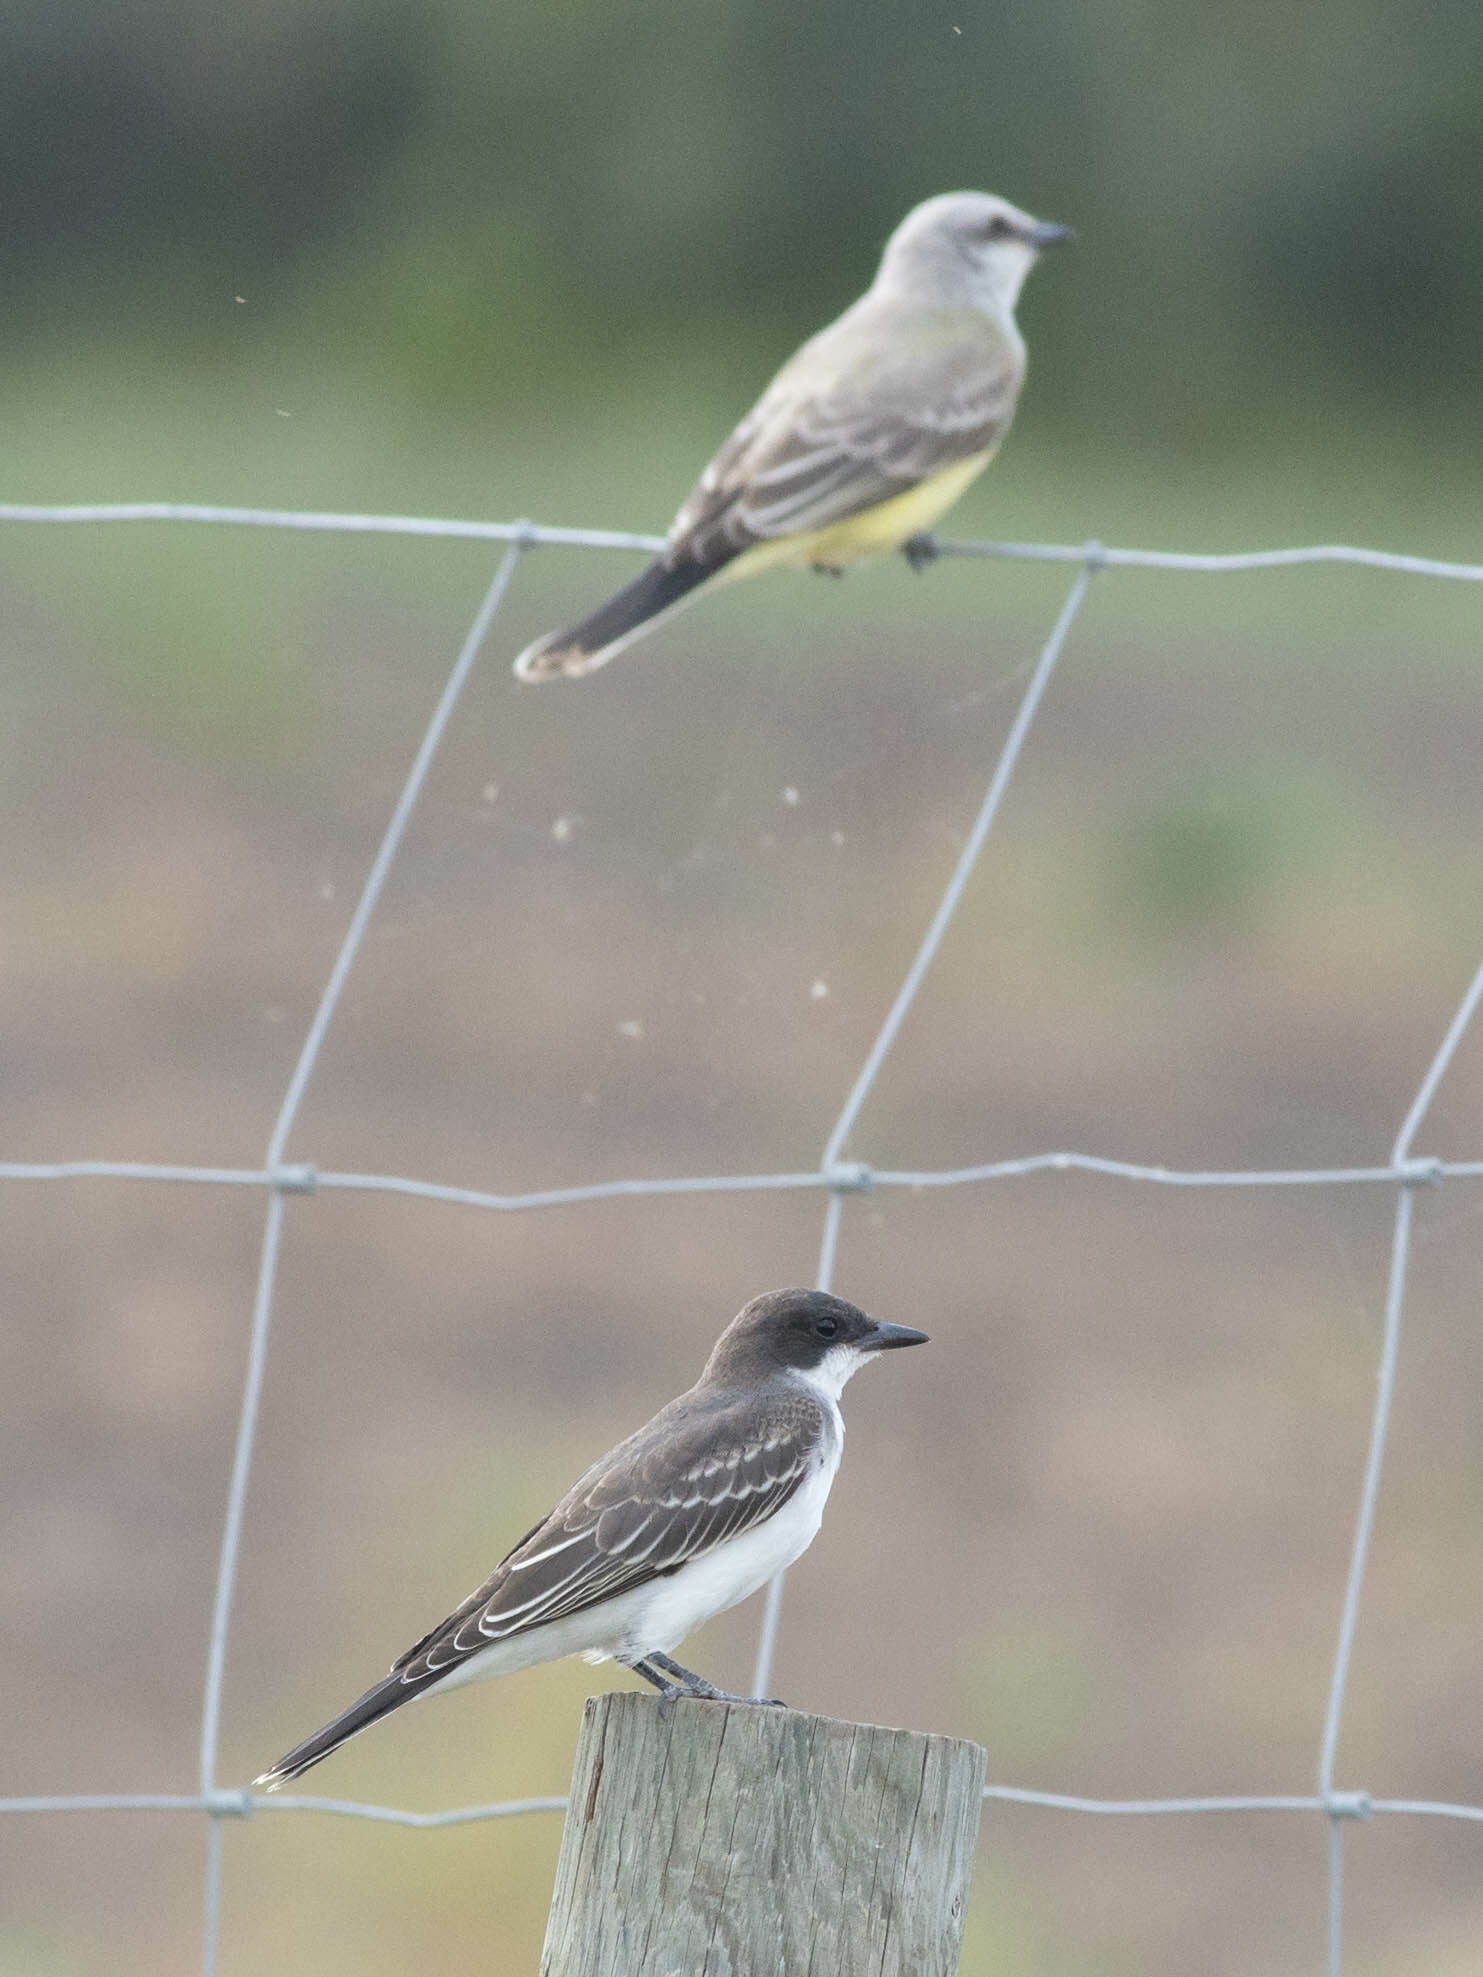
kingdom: Animalia
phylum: Chordata
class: Aves
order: Passeriformes
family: Tyrannidae
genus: Tyrannus
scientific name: Tyrannus tyrannus
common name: Eastern kingbird
